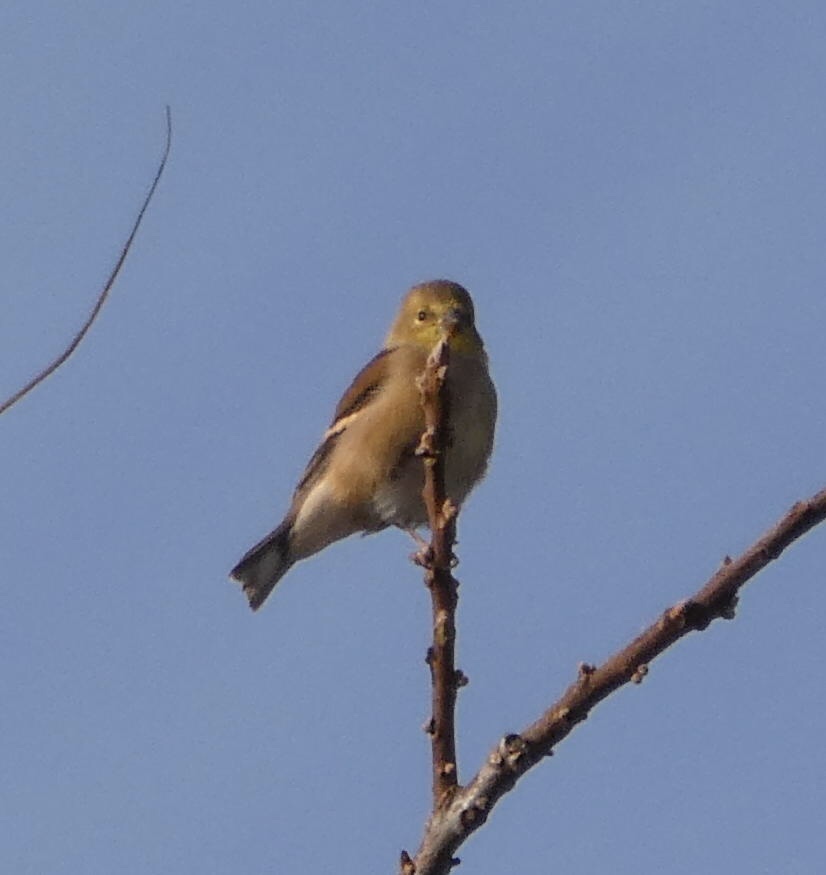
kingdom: Animalia
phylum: Chordata
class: Aves
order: Passeriformes
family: Fringillidae
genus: Spinus
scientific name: Spinus tristis
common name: American goldfinch
